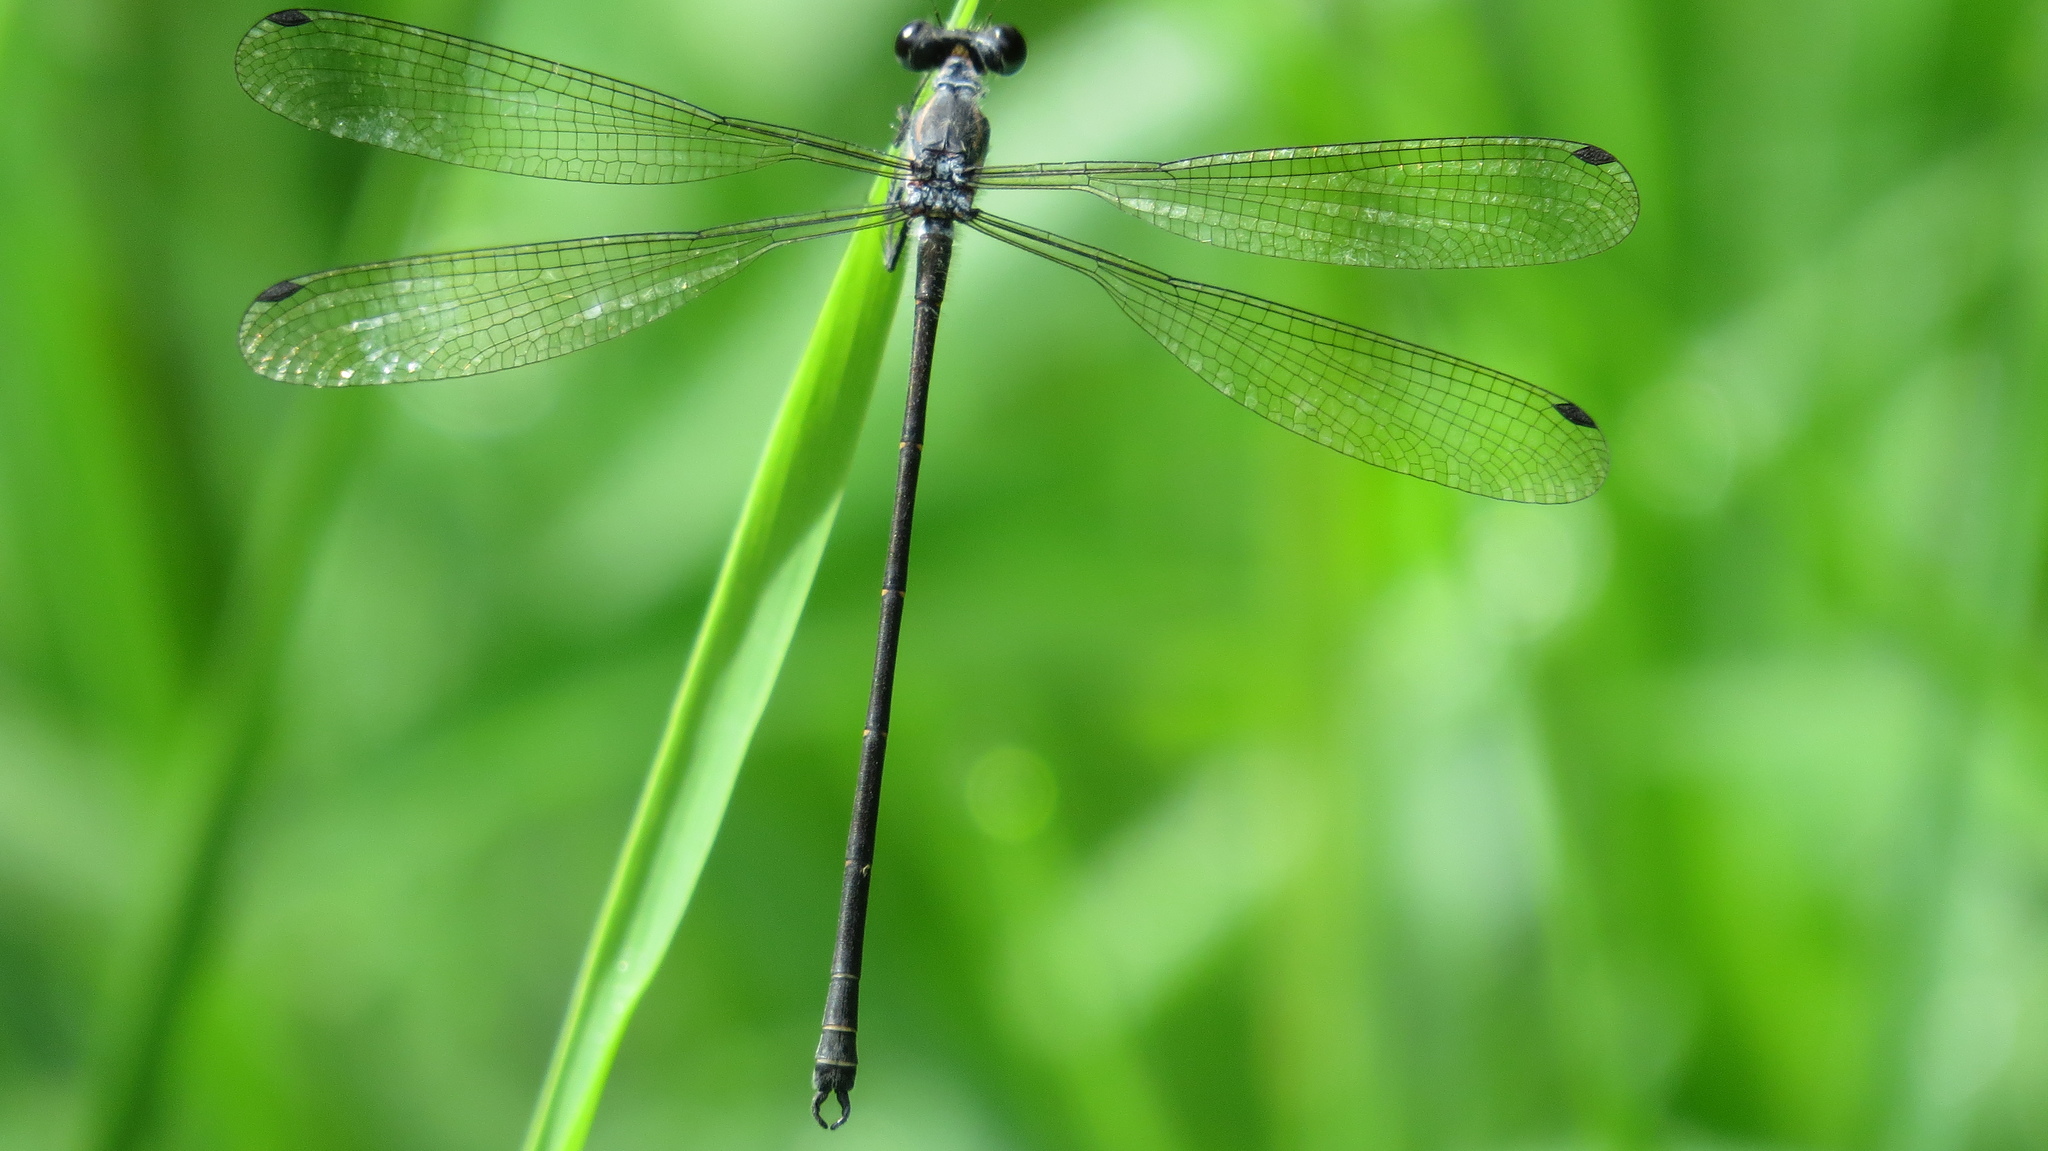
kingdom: Animalia
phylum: Arthropoda
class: Insecta
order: Odonata
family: Argiolestidae
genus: Austroargiolestes
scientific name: Austroargiolestes icteromelas
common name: Common flatwing
